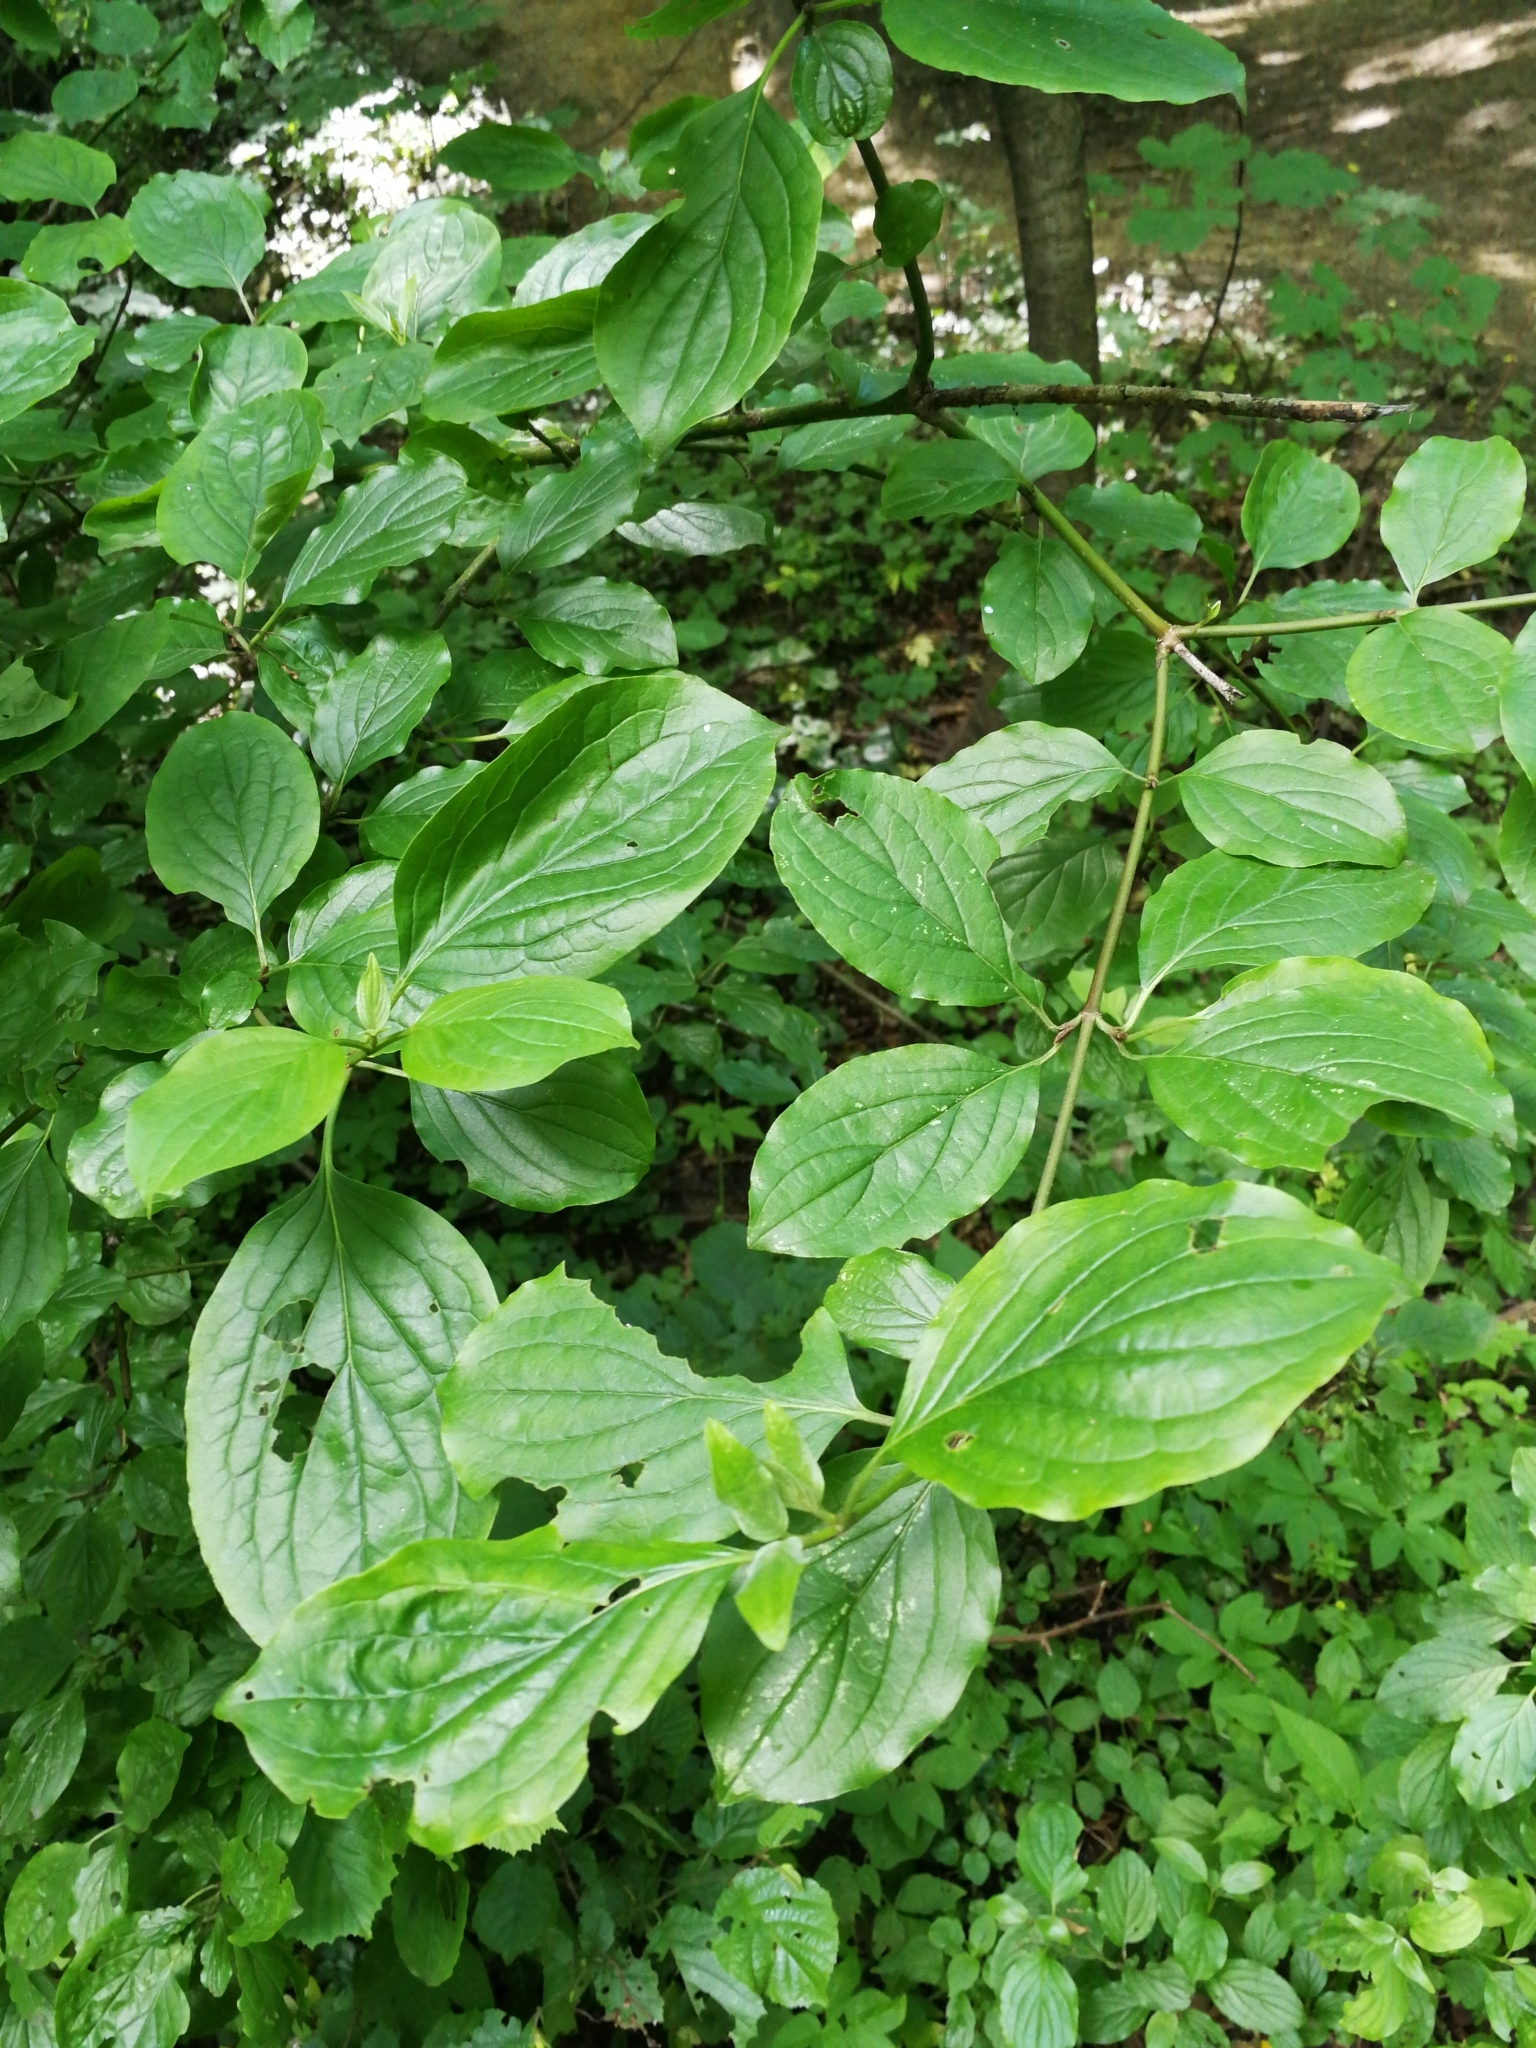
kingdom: Plantae
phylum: Tracheophyta
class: Magnoliopsida
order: Cornales
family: Cornaceae
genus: Cornus
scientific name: Cornus sanguinea
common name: Dogwood
